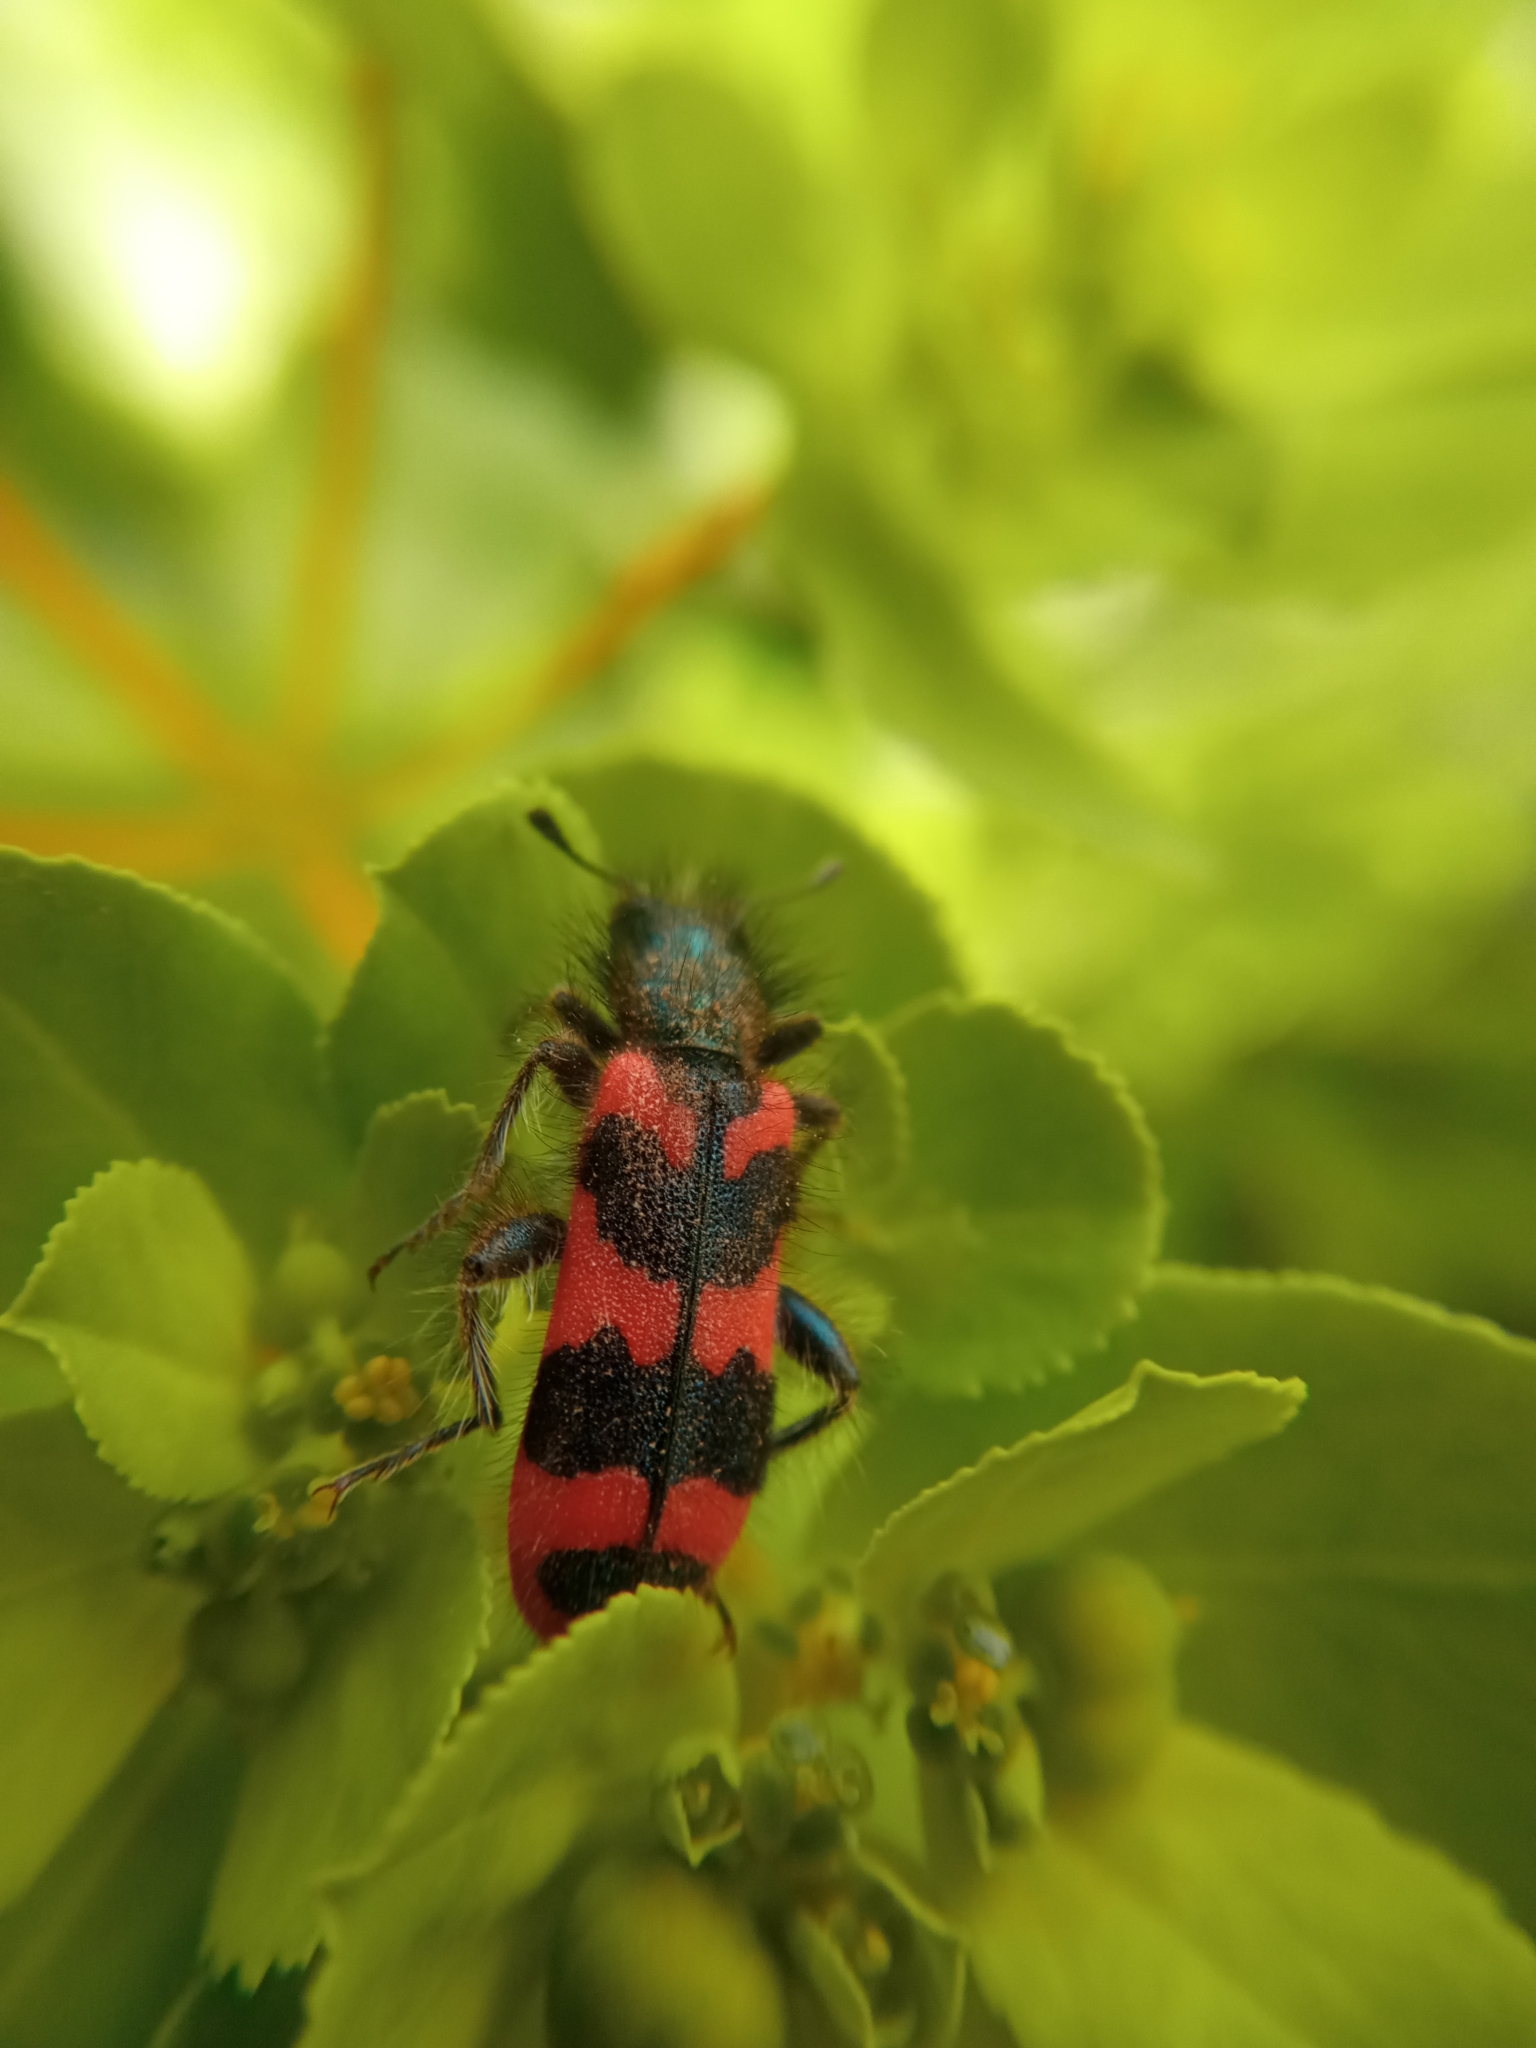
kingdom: Animalia
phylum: Arthropoda
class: Insecta
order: Coleoptera
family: Cleridae
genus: Trichodes
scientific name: Trichodes alvearius
